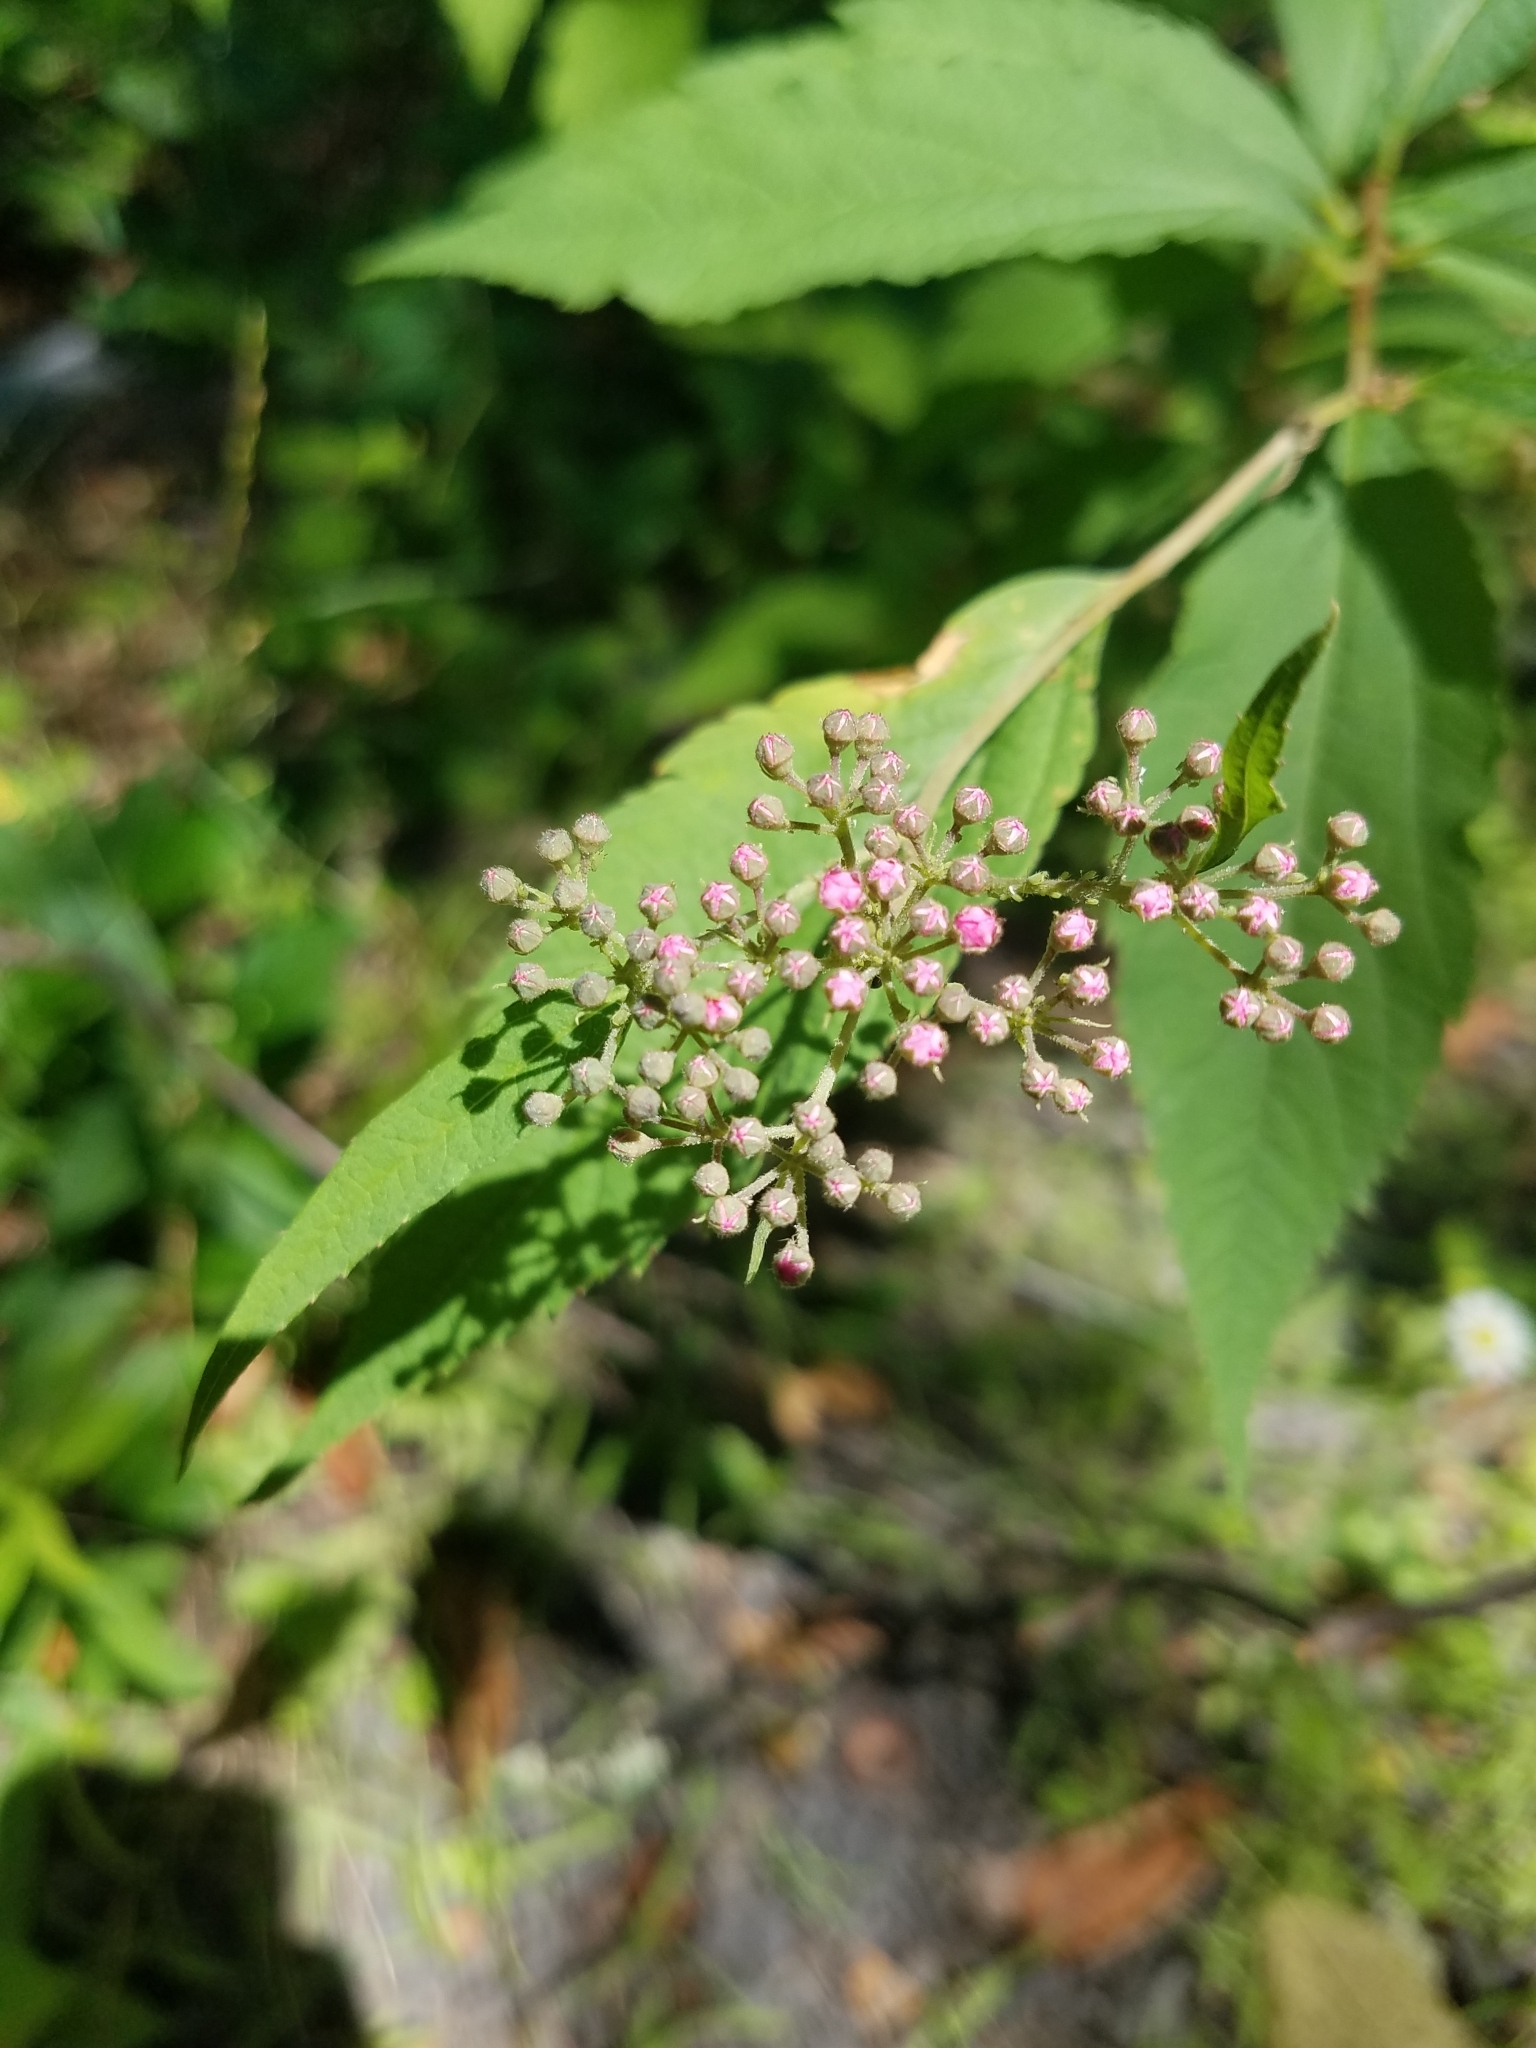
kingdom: Plantae
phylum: Tracheophyta
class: Magnoliopsida
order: Rosales
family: Rosaceae
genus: Spiraea
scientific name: Spiraea japonica
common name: Japanese spiraea
